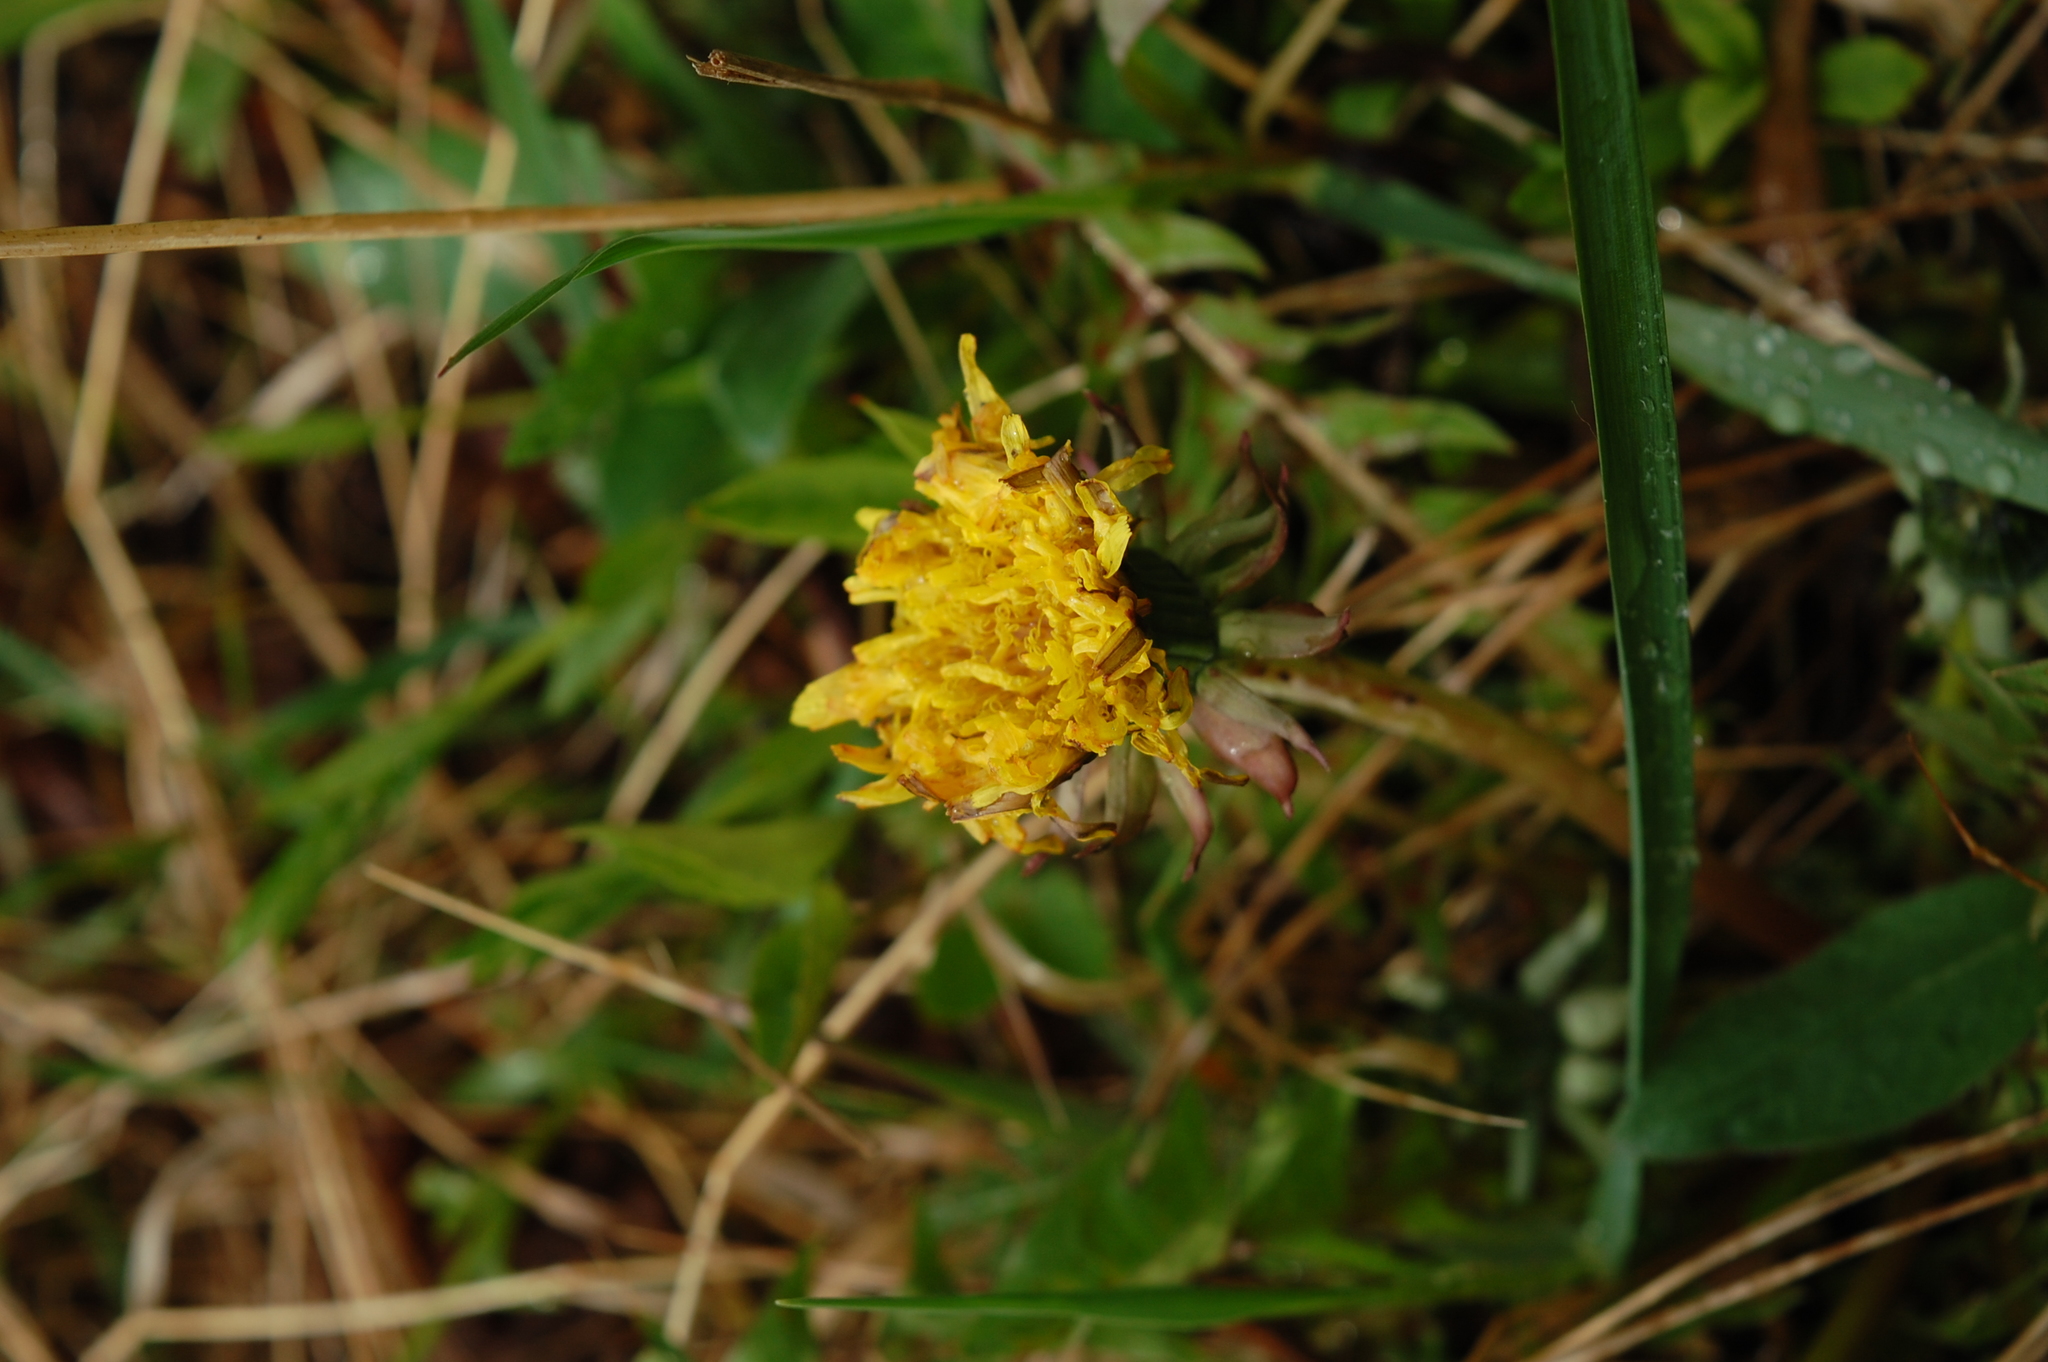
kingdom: Plantae
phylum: Tracheophyta
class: Magnoliopsida
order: Asterales
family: Asteraceae
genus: Taraxacum
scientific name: Taraxacum officinale
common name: Common dandelion
